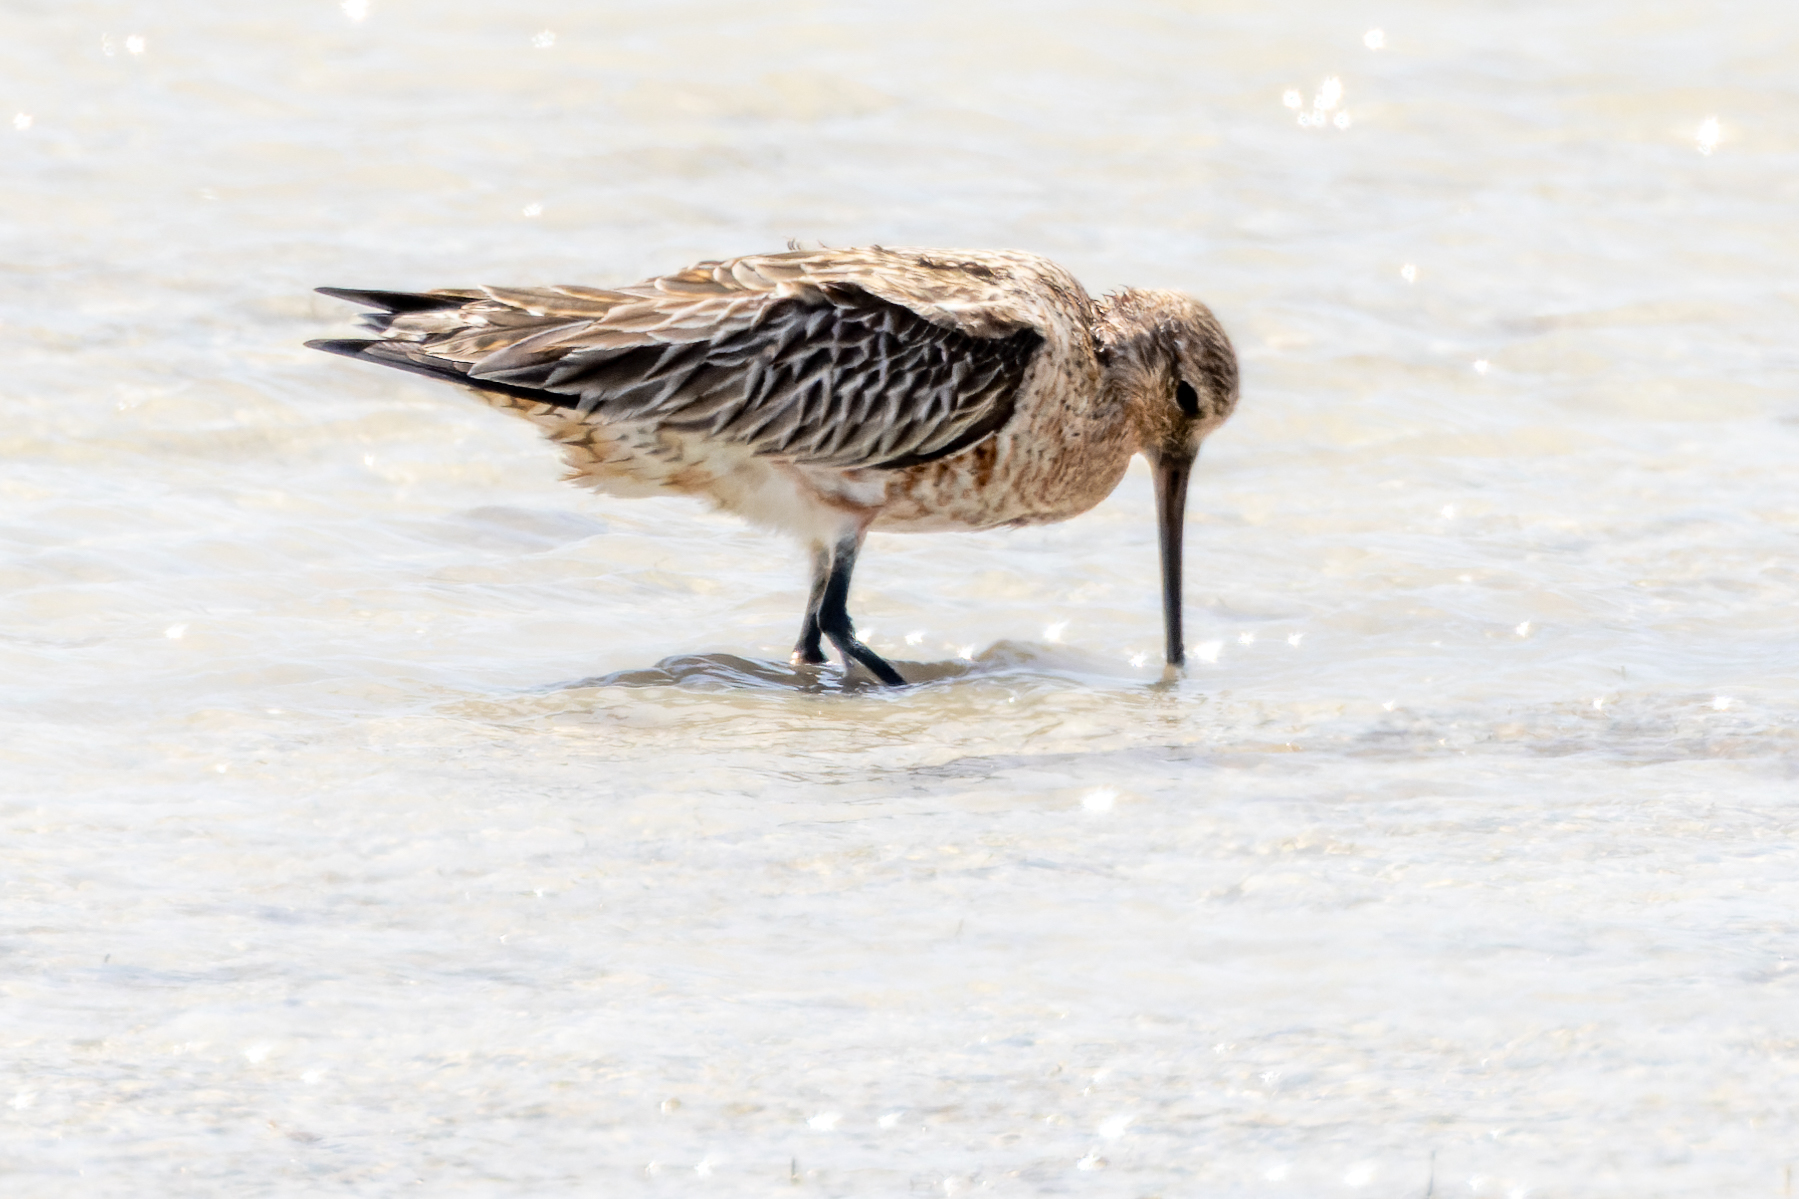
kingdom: Animalia
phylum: Chordata
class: Aves
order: Charadriiformes
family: Scolopacidae
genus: Limosa
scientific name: Limosa lapponica
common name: Bar-tailed godwit
